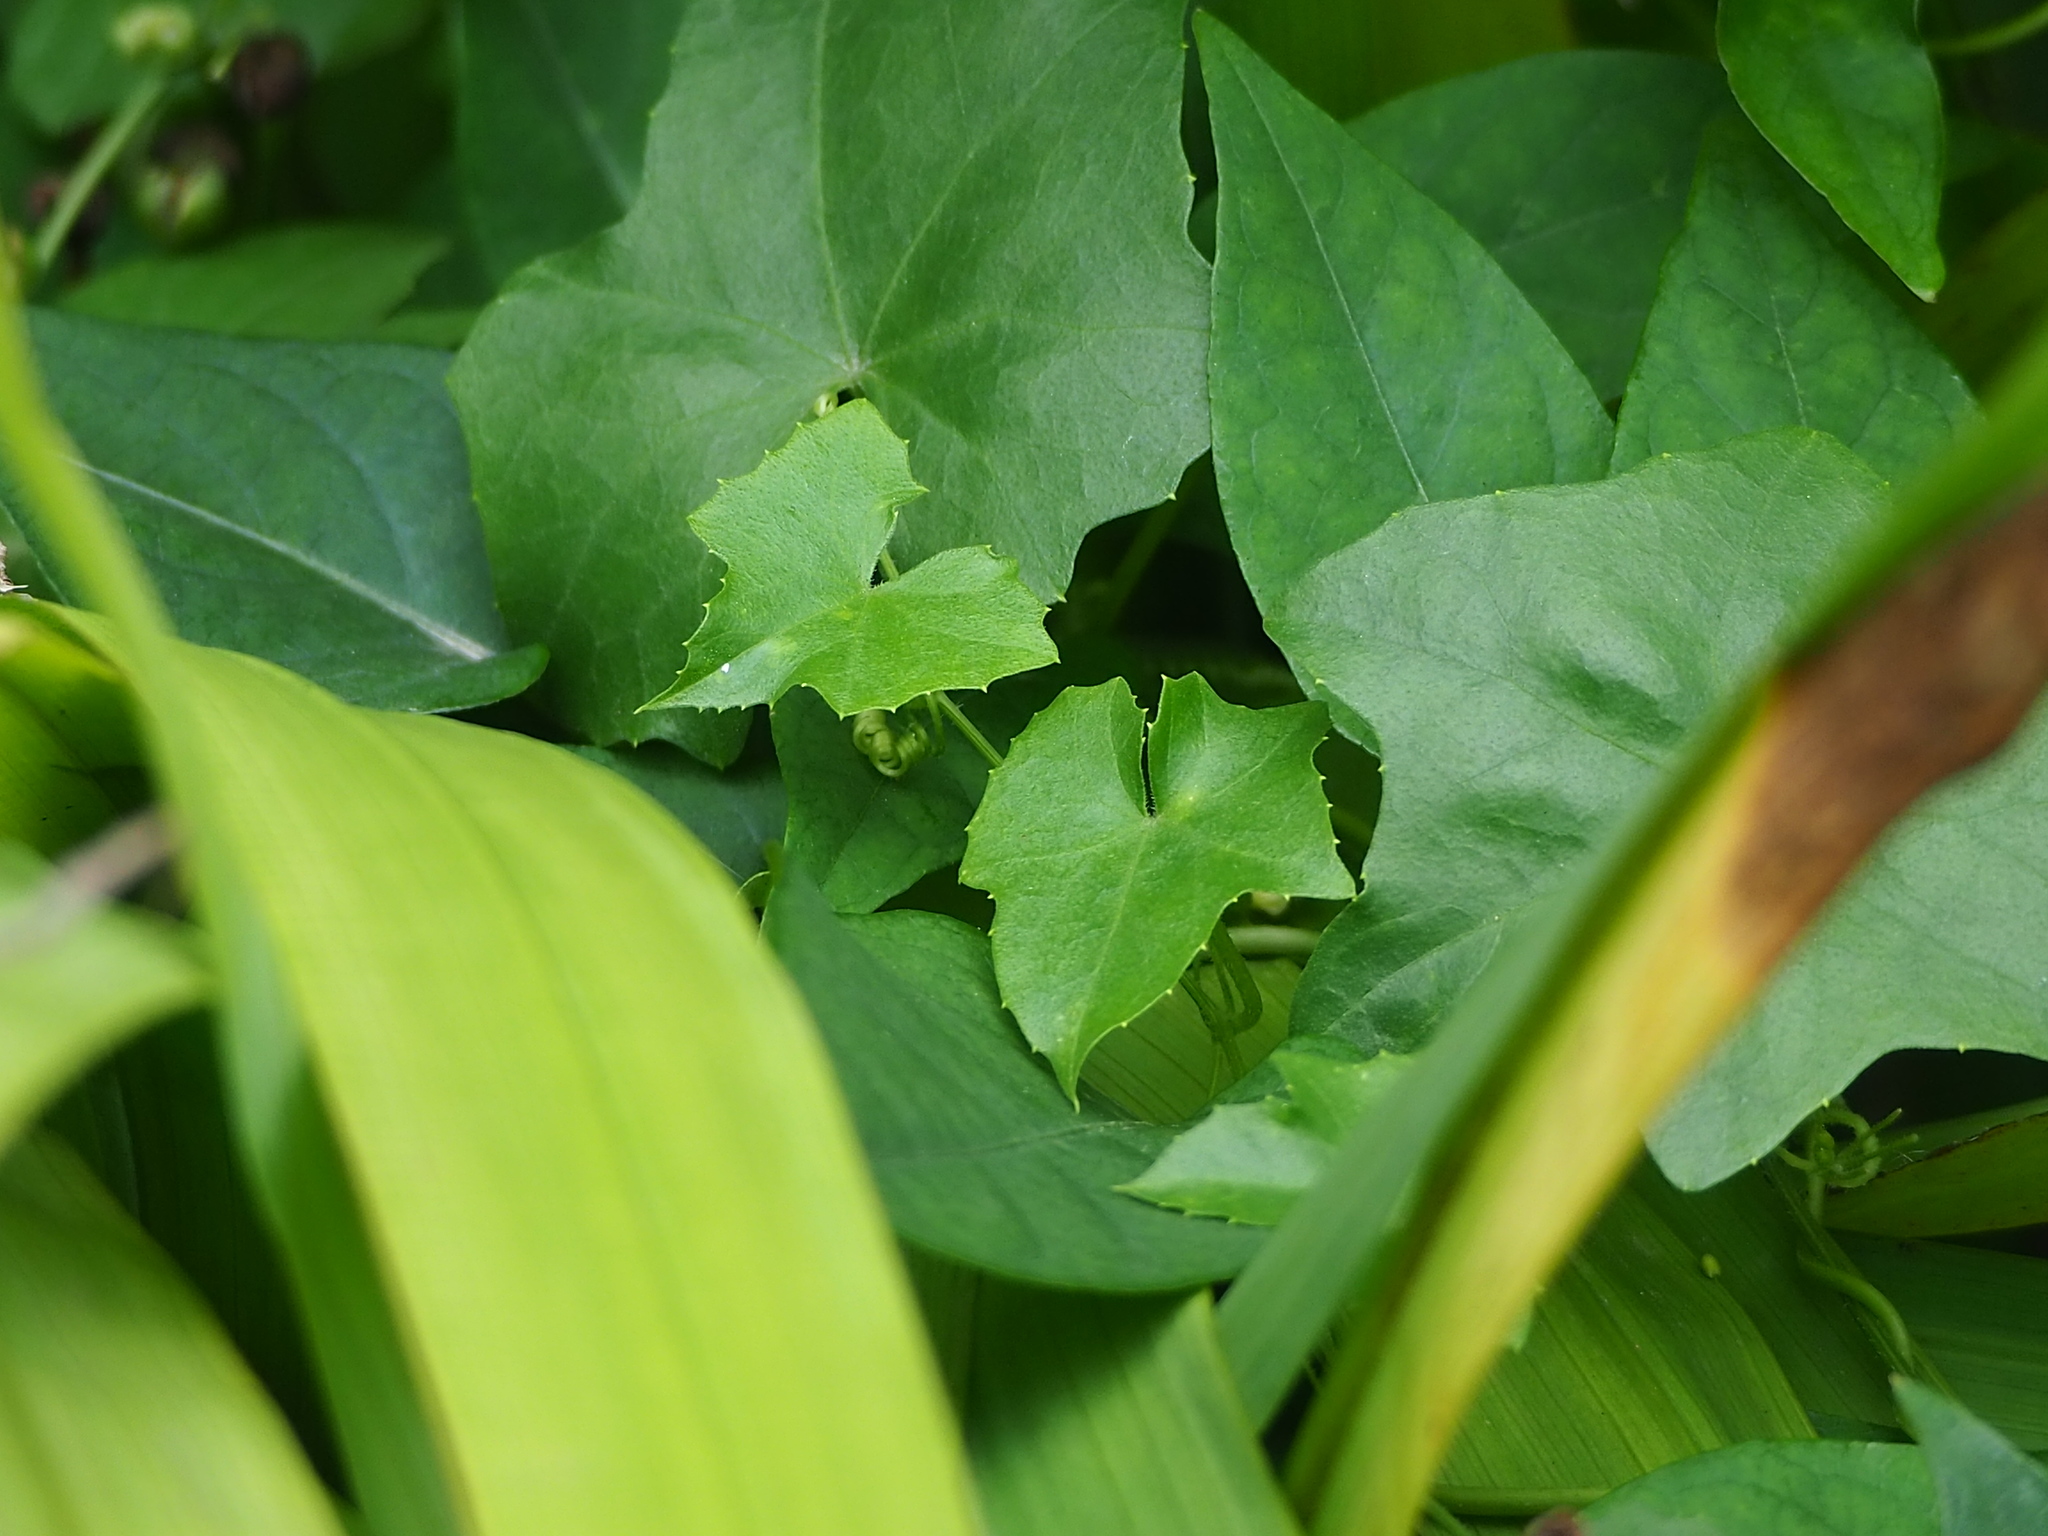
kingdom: Plantae
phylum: Tracheophyta
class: Magnoliopsida
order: Cucurbitales
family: Cucurbitaceae
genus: Melothria
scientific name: Melothria pendula
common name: Creeping-cucumber
